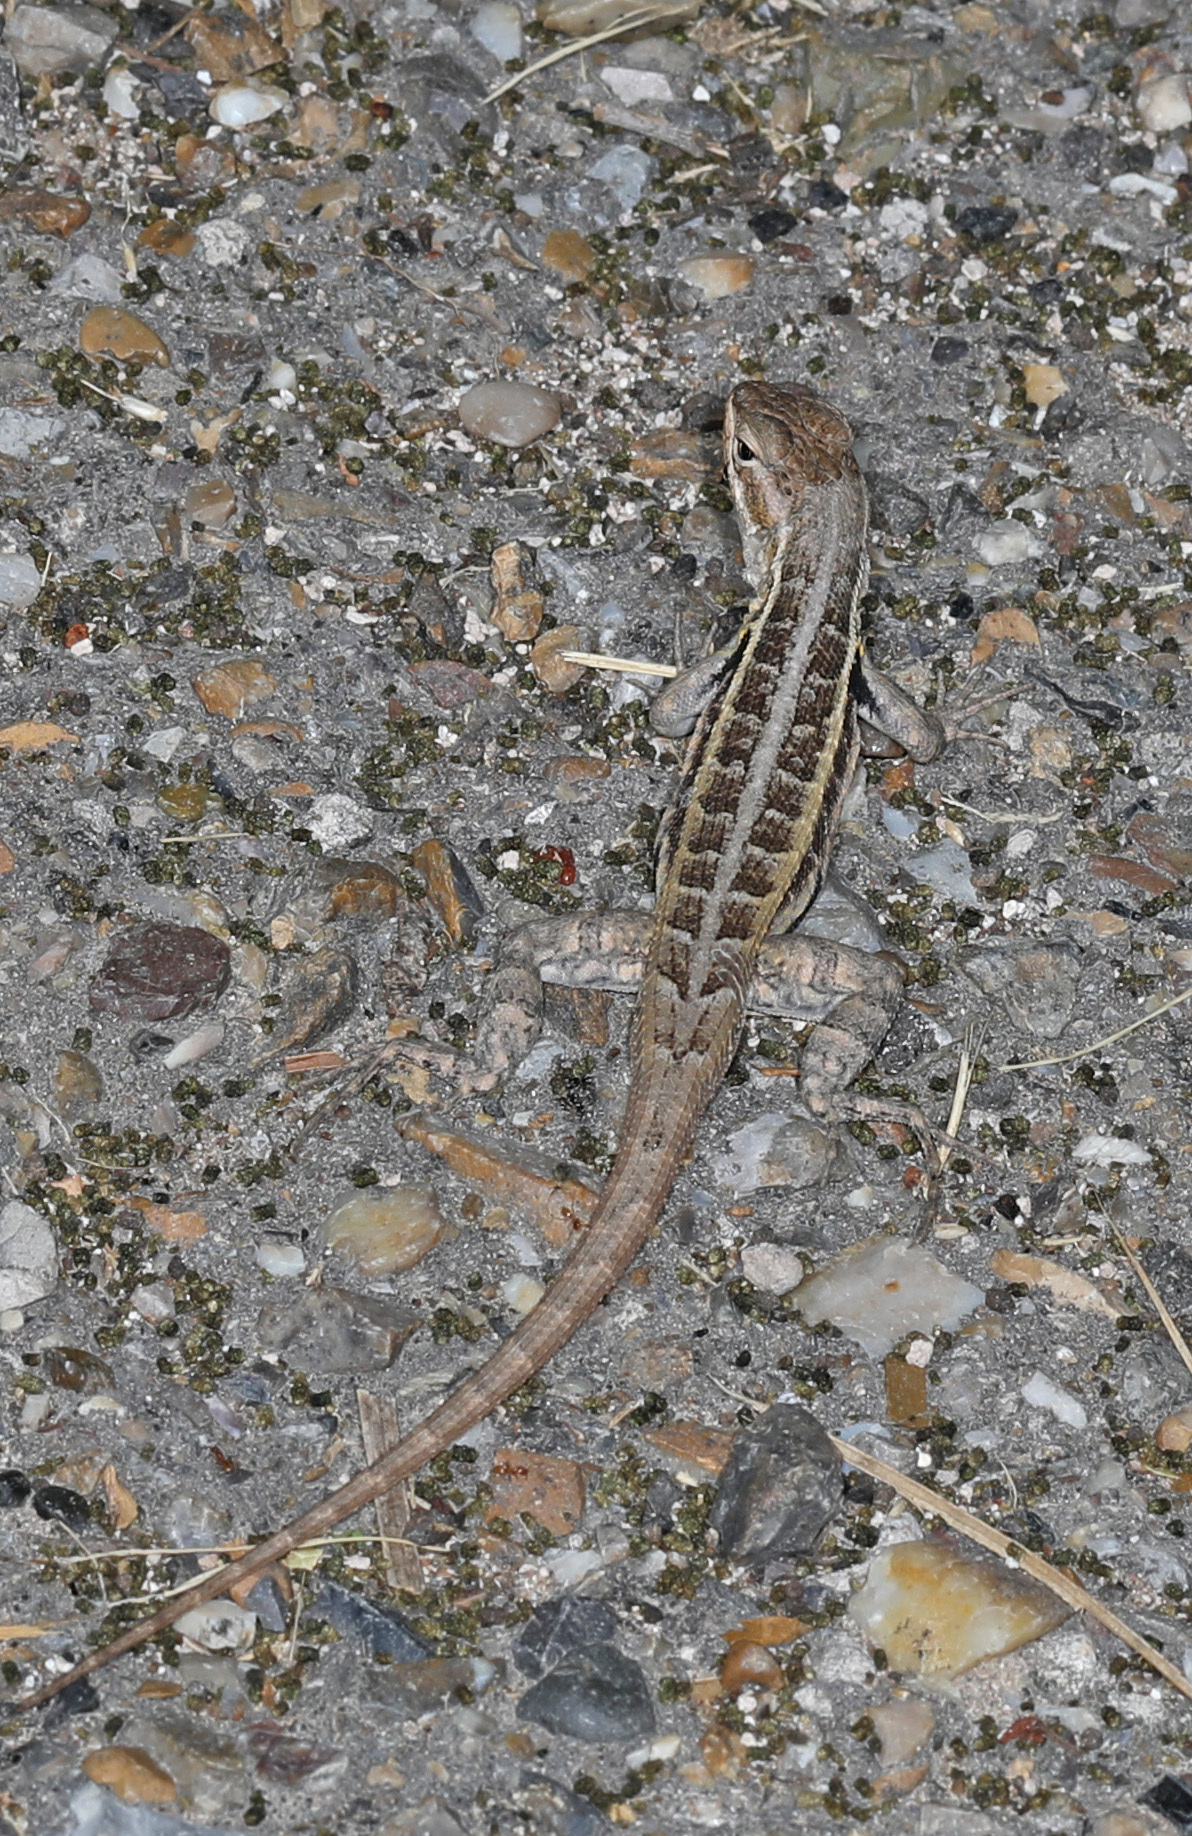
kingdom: Animalia
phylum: Chordata
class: Squamata
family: Phrynosomatidae
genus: Sceloporus
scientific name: Sceloporus variabilis
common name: Rosebelly lizard
